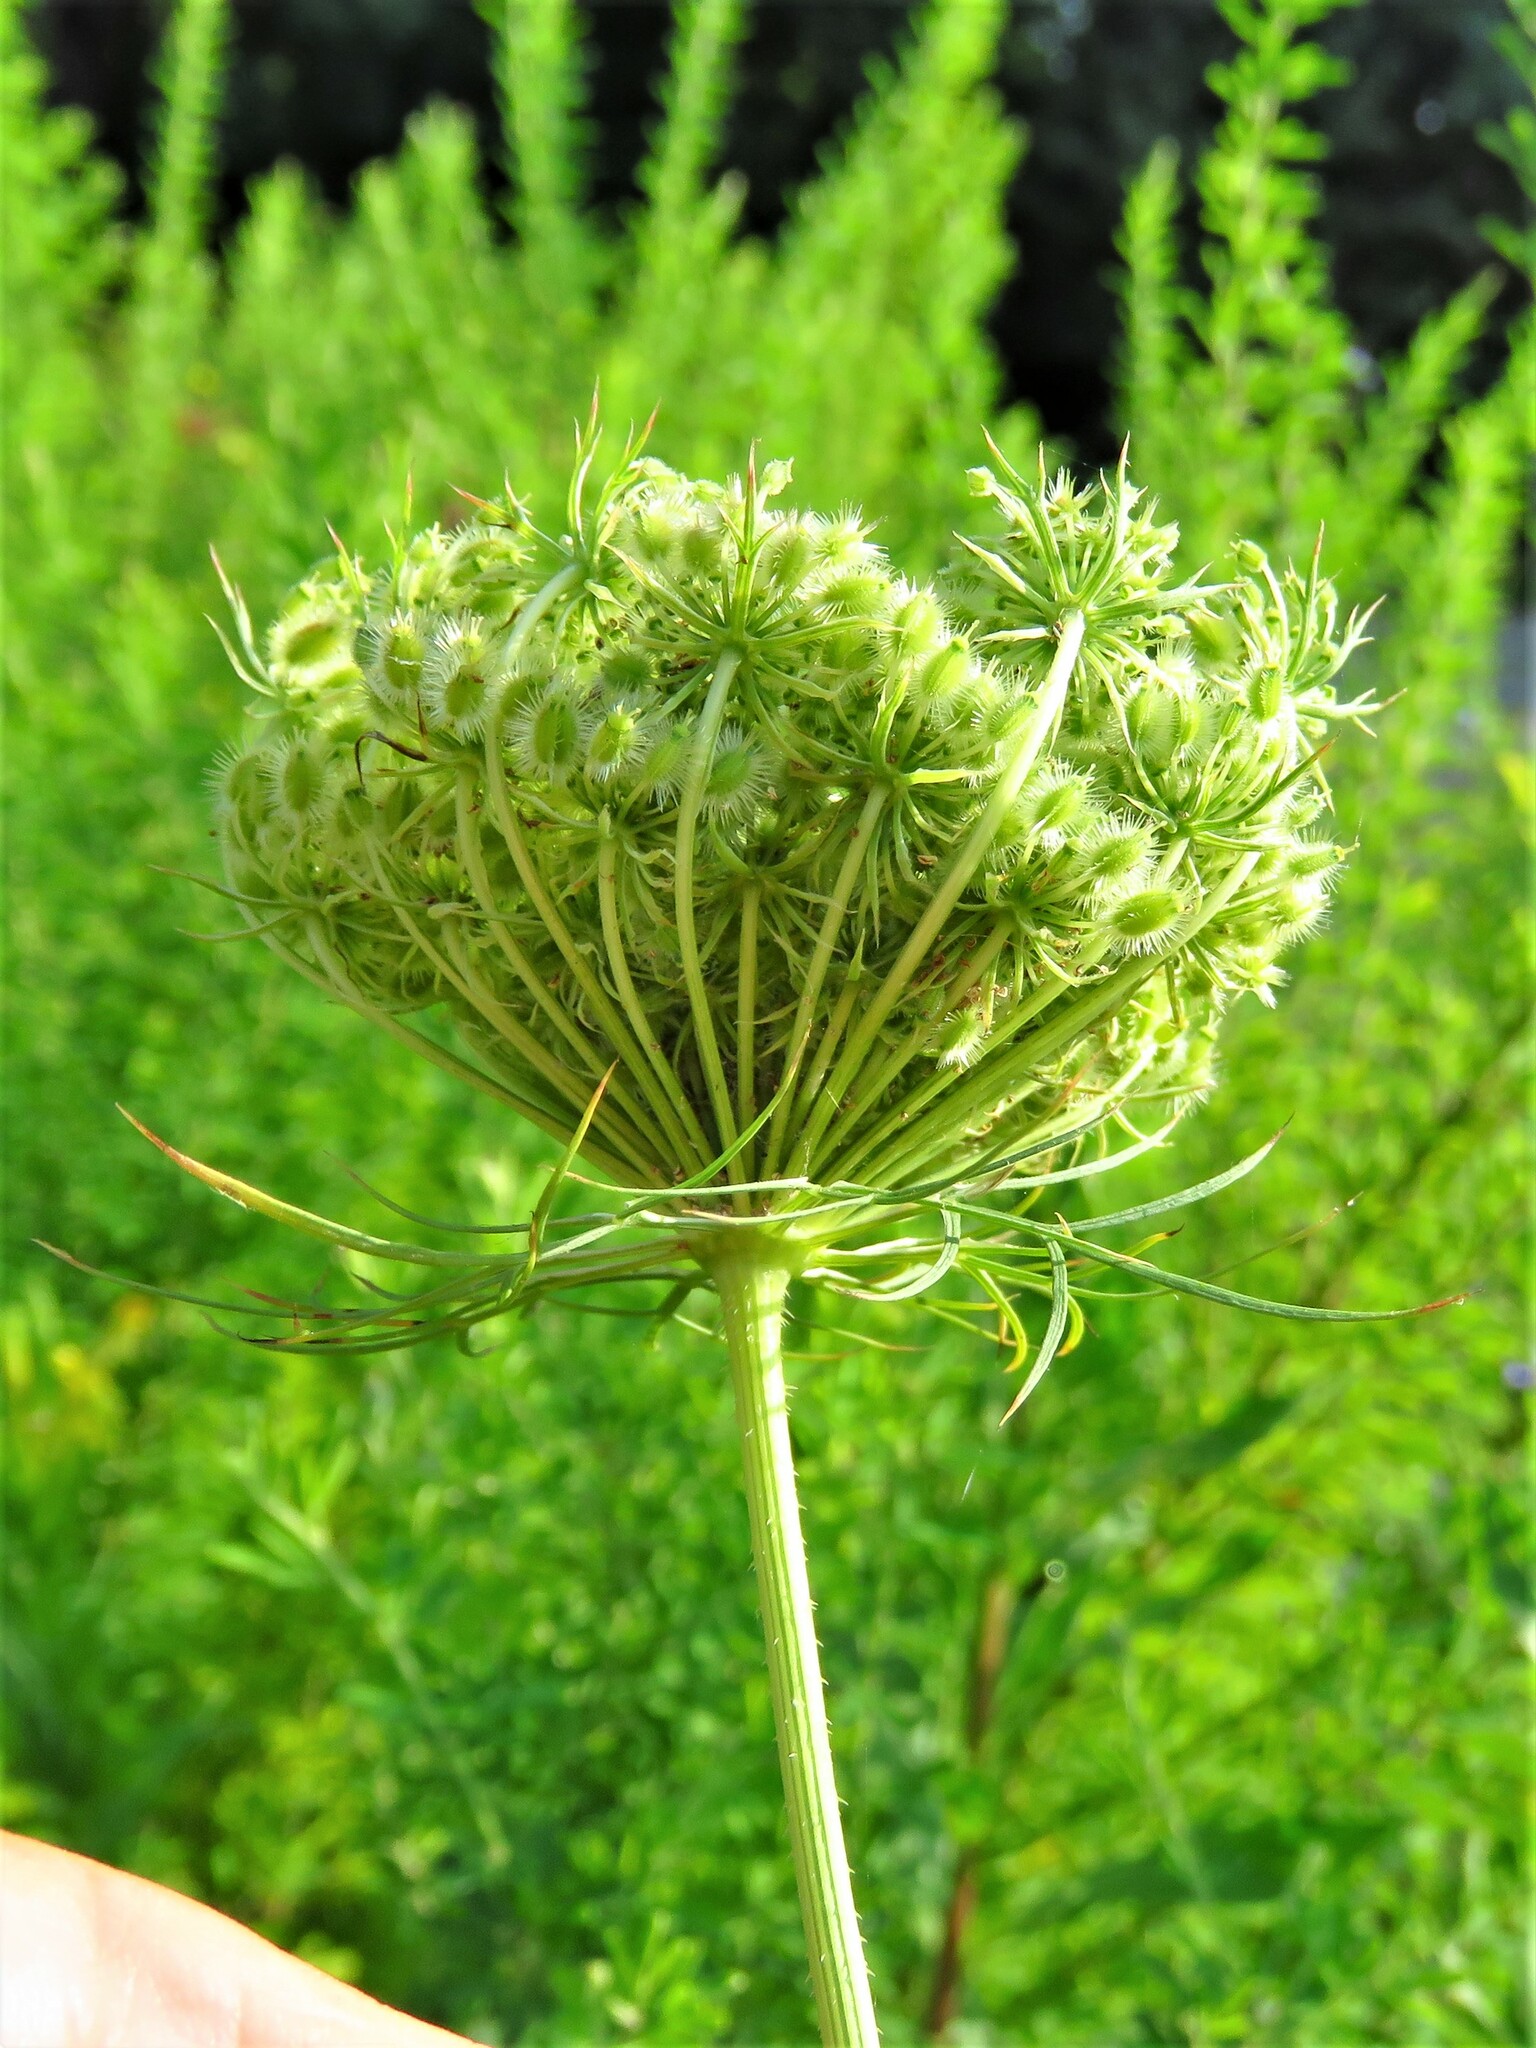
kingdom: Plantae
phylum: Tracheophyta
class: Magnoliopsida
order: Apiales
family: Apiaceae
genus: Daucus
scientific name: Daucus carota
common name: Wild carrot
